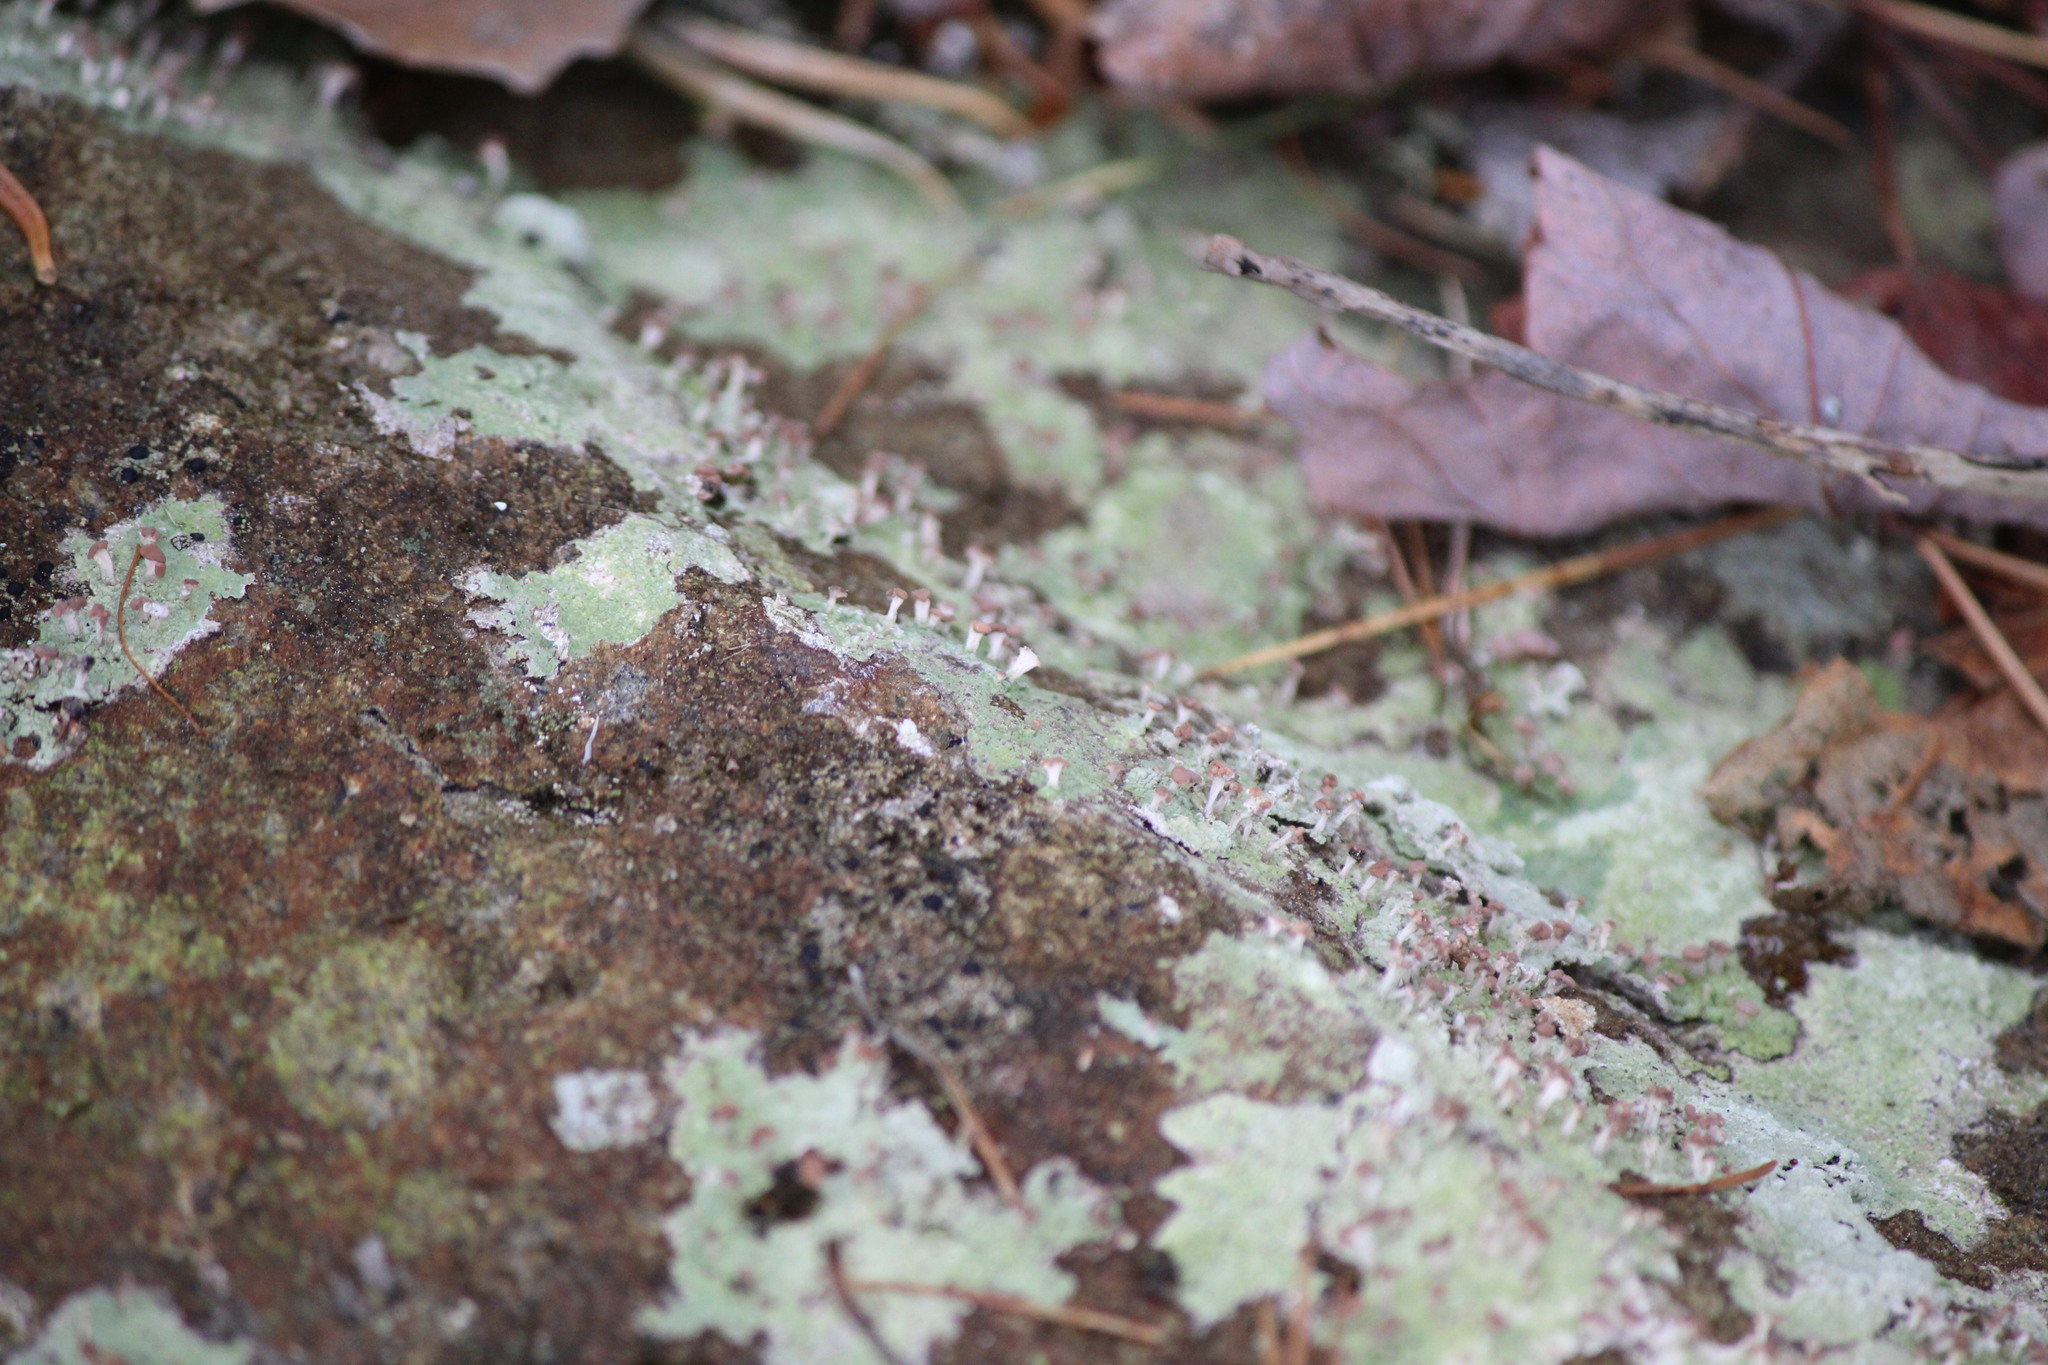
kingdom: Fungi
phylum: Ascomycota
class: Lecanoromycetes
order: Baeomycetales
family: Baeomycetaceae
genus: Baeomyces
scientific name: Baeomyces rufus
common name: Brown beret lichen
